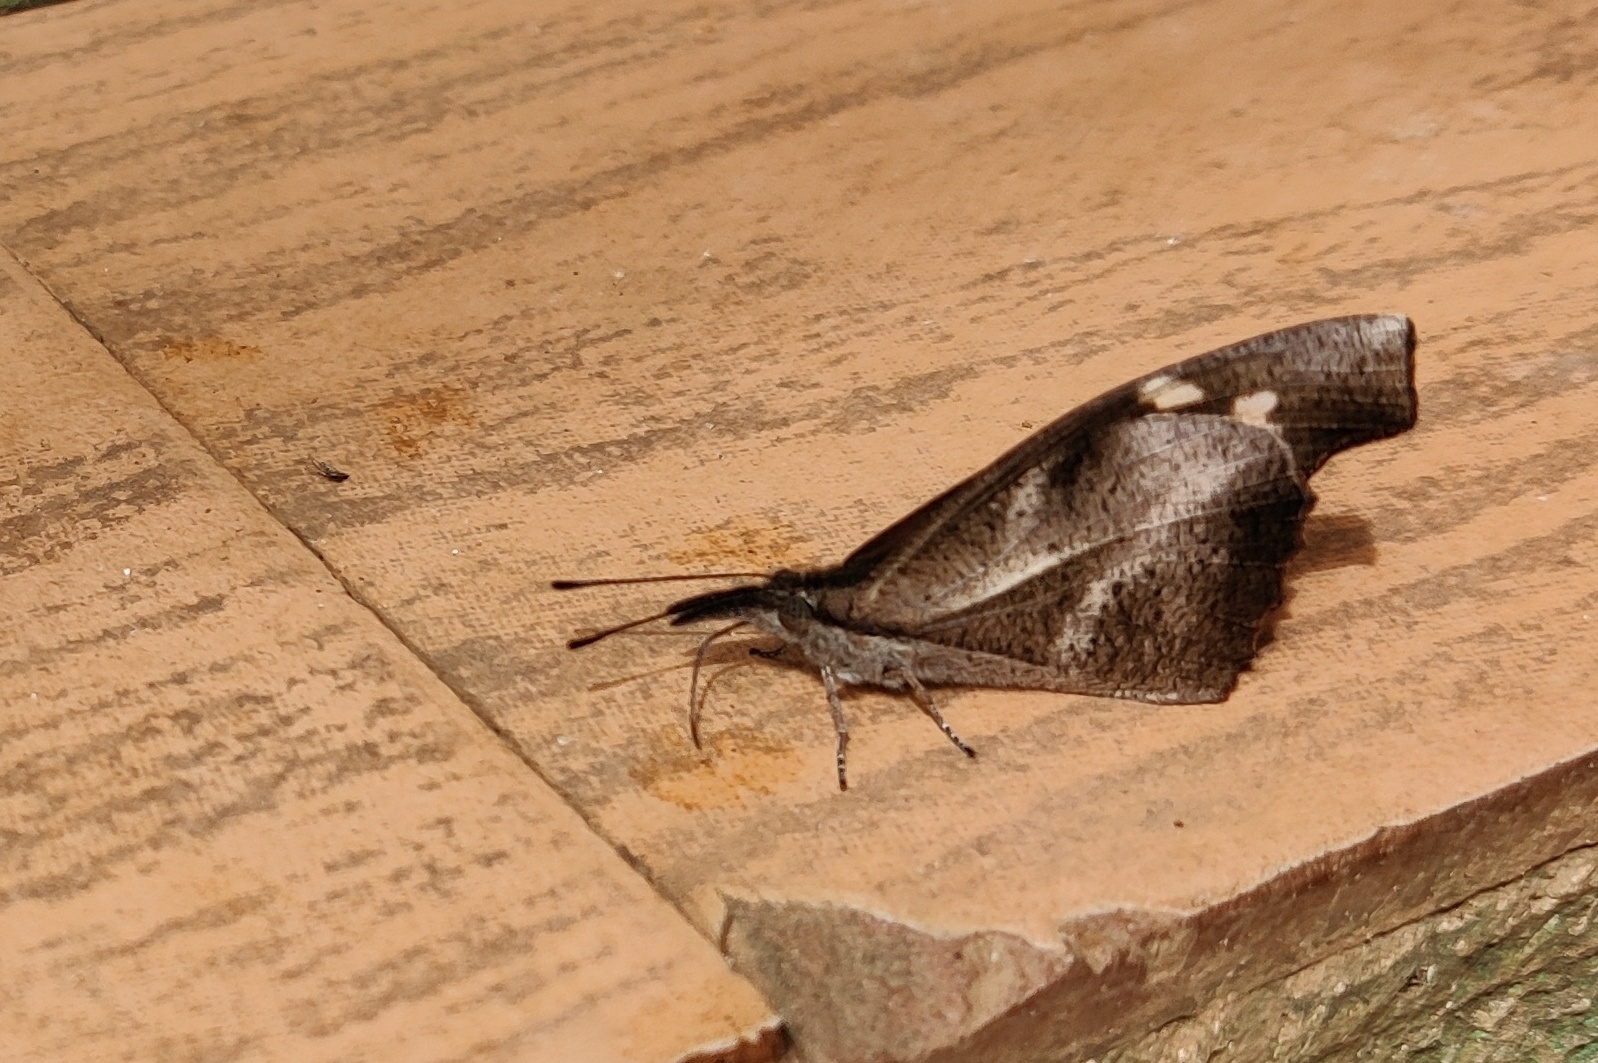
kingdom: Animalia
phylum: Arthropoda
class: Insecta
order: Lepidoptera
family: Nymphalidae
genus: Libythea
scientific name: Libythea myrrha
